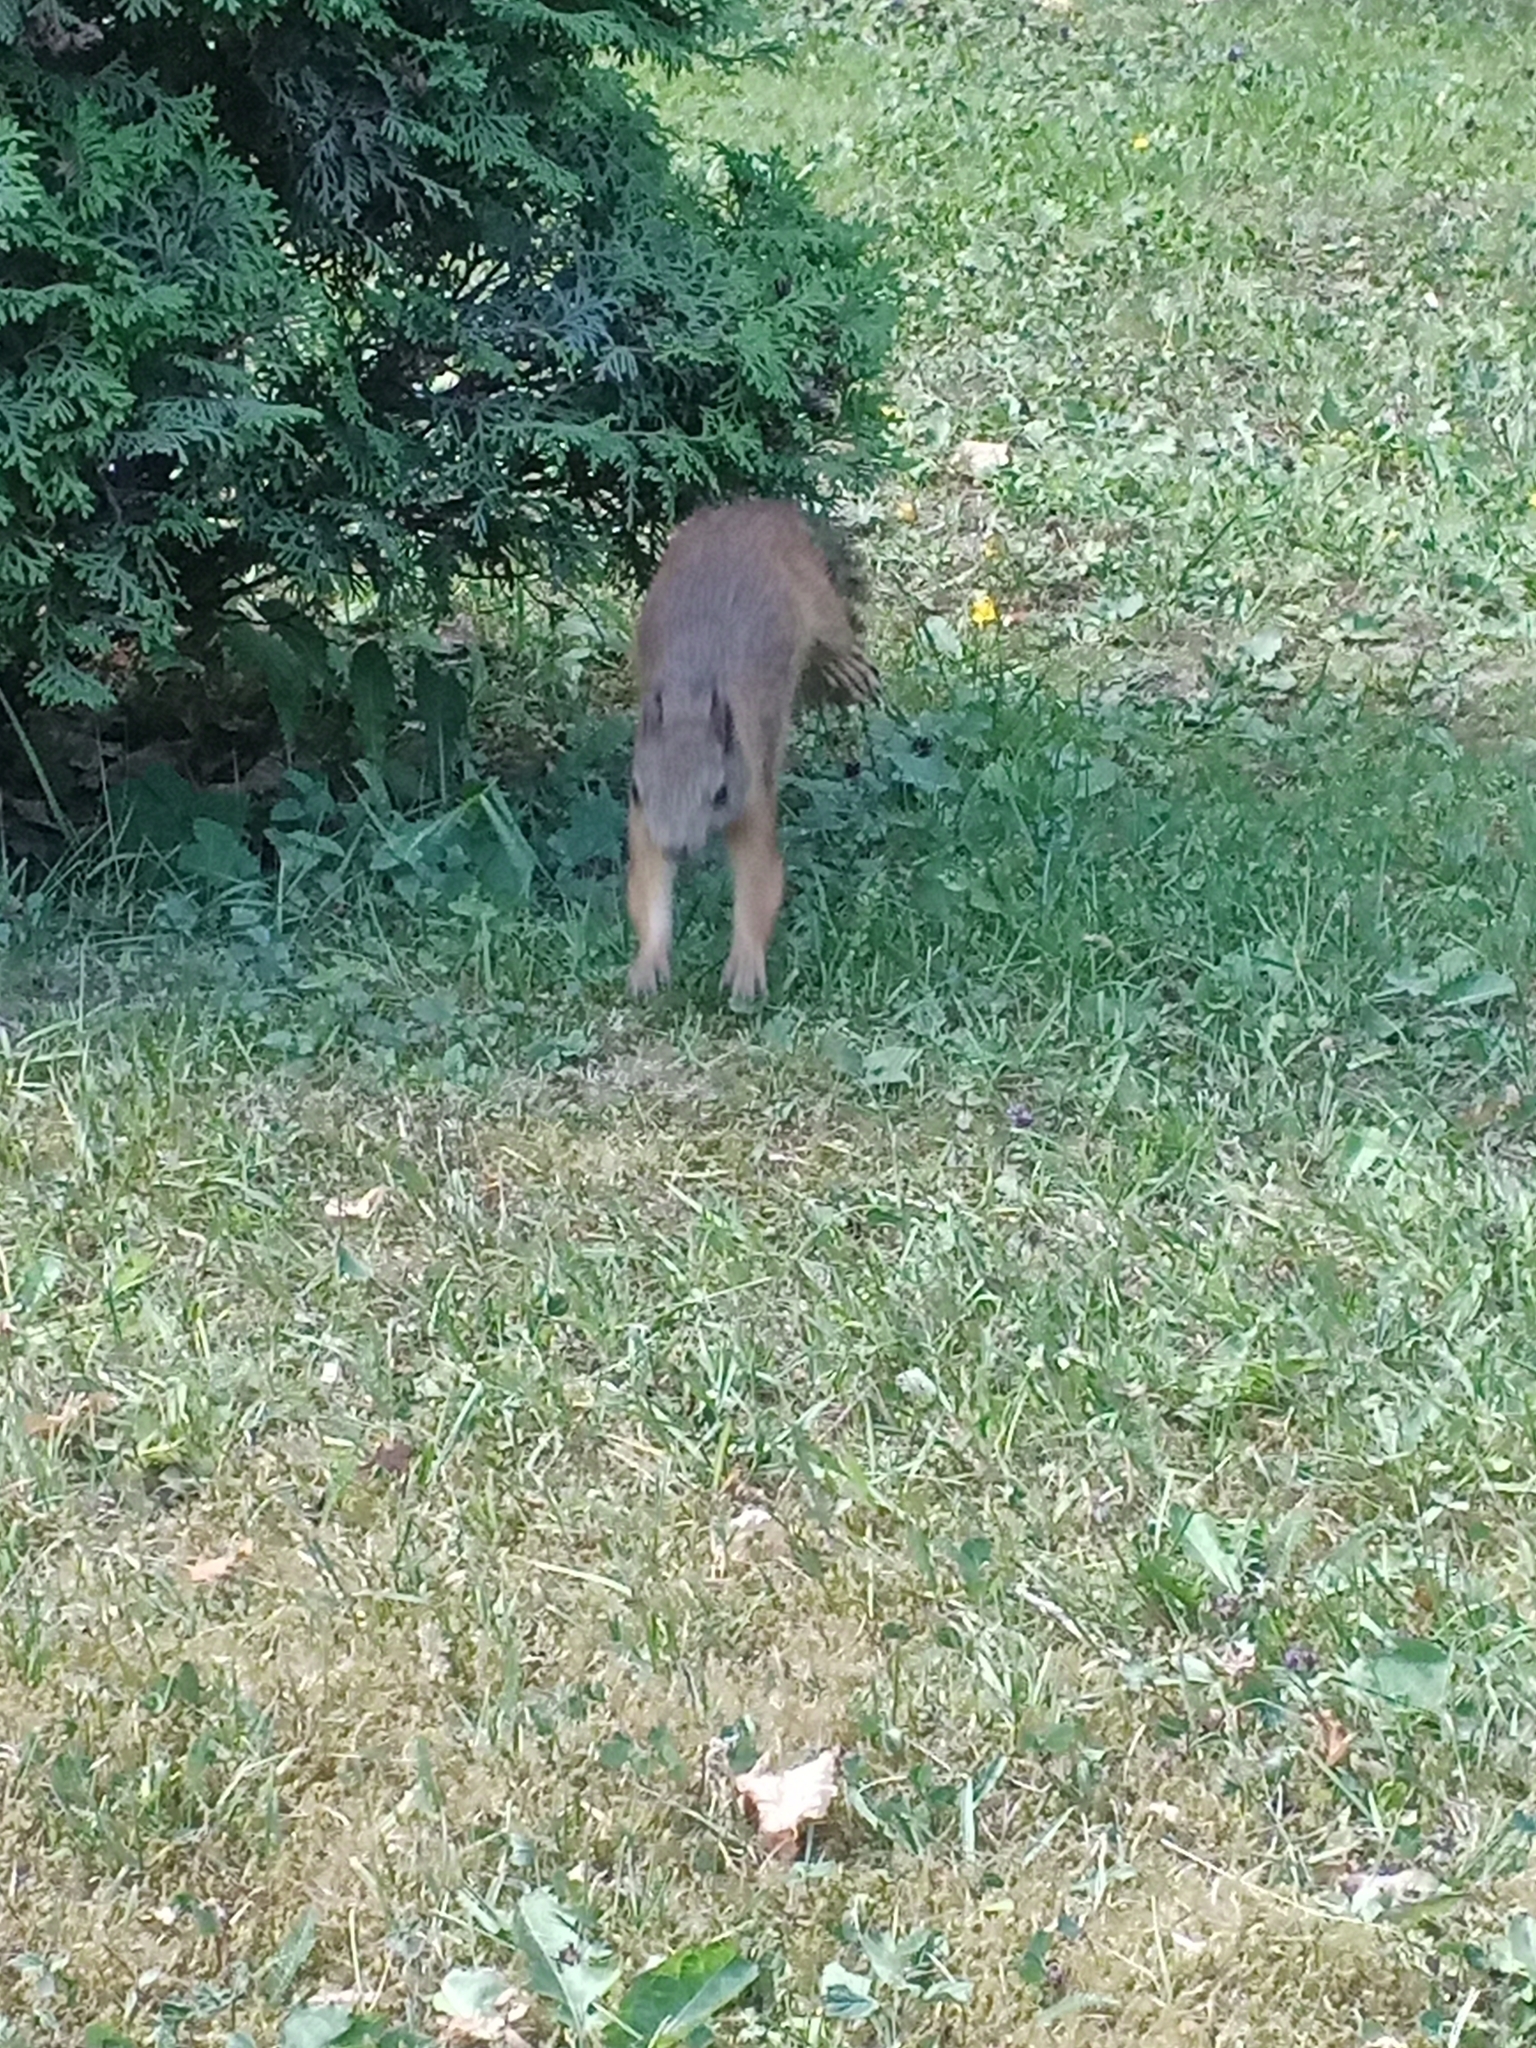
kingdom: Animalia
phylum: Chordata
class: Mammalia
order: Rodentia
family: Sciuridae
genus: Sciurus
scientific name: Sciurus vulgaris
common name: Eurasian red squirrel
